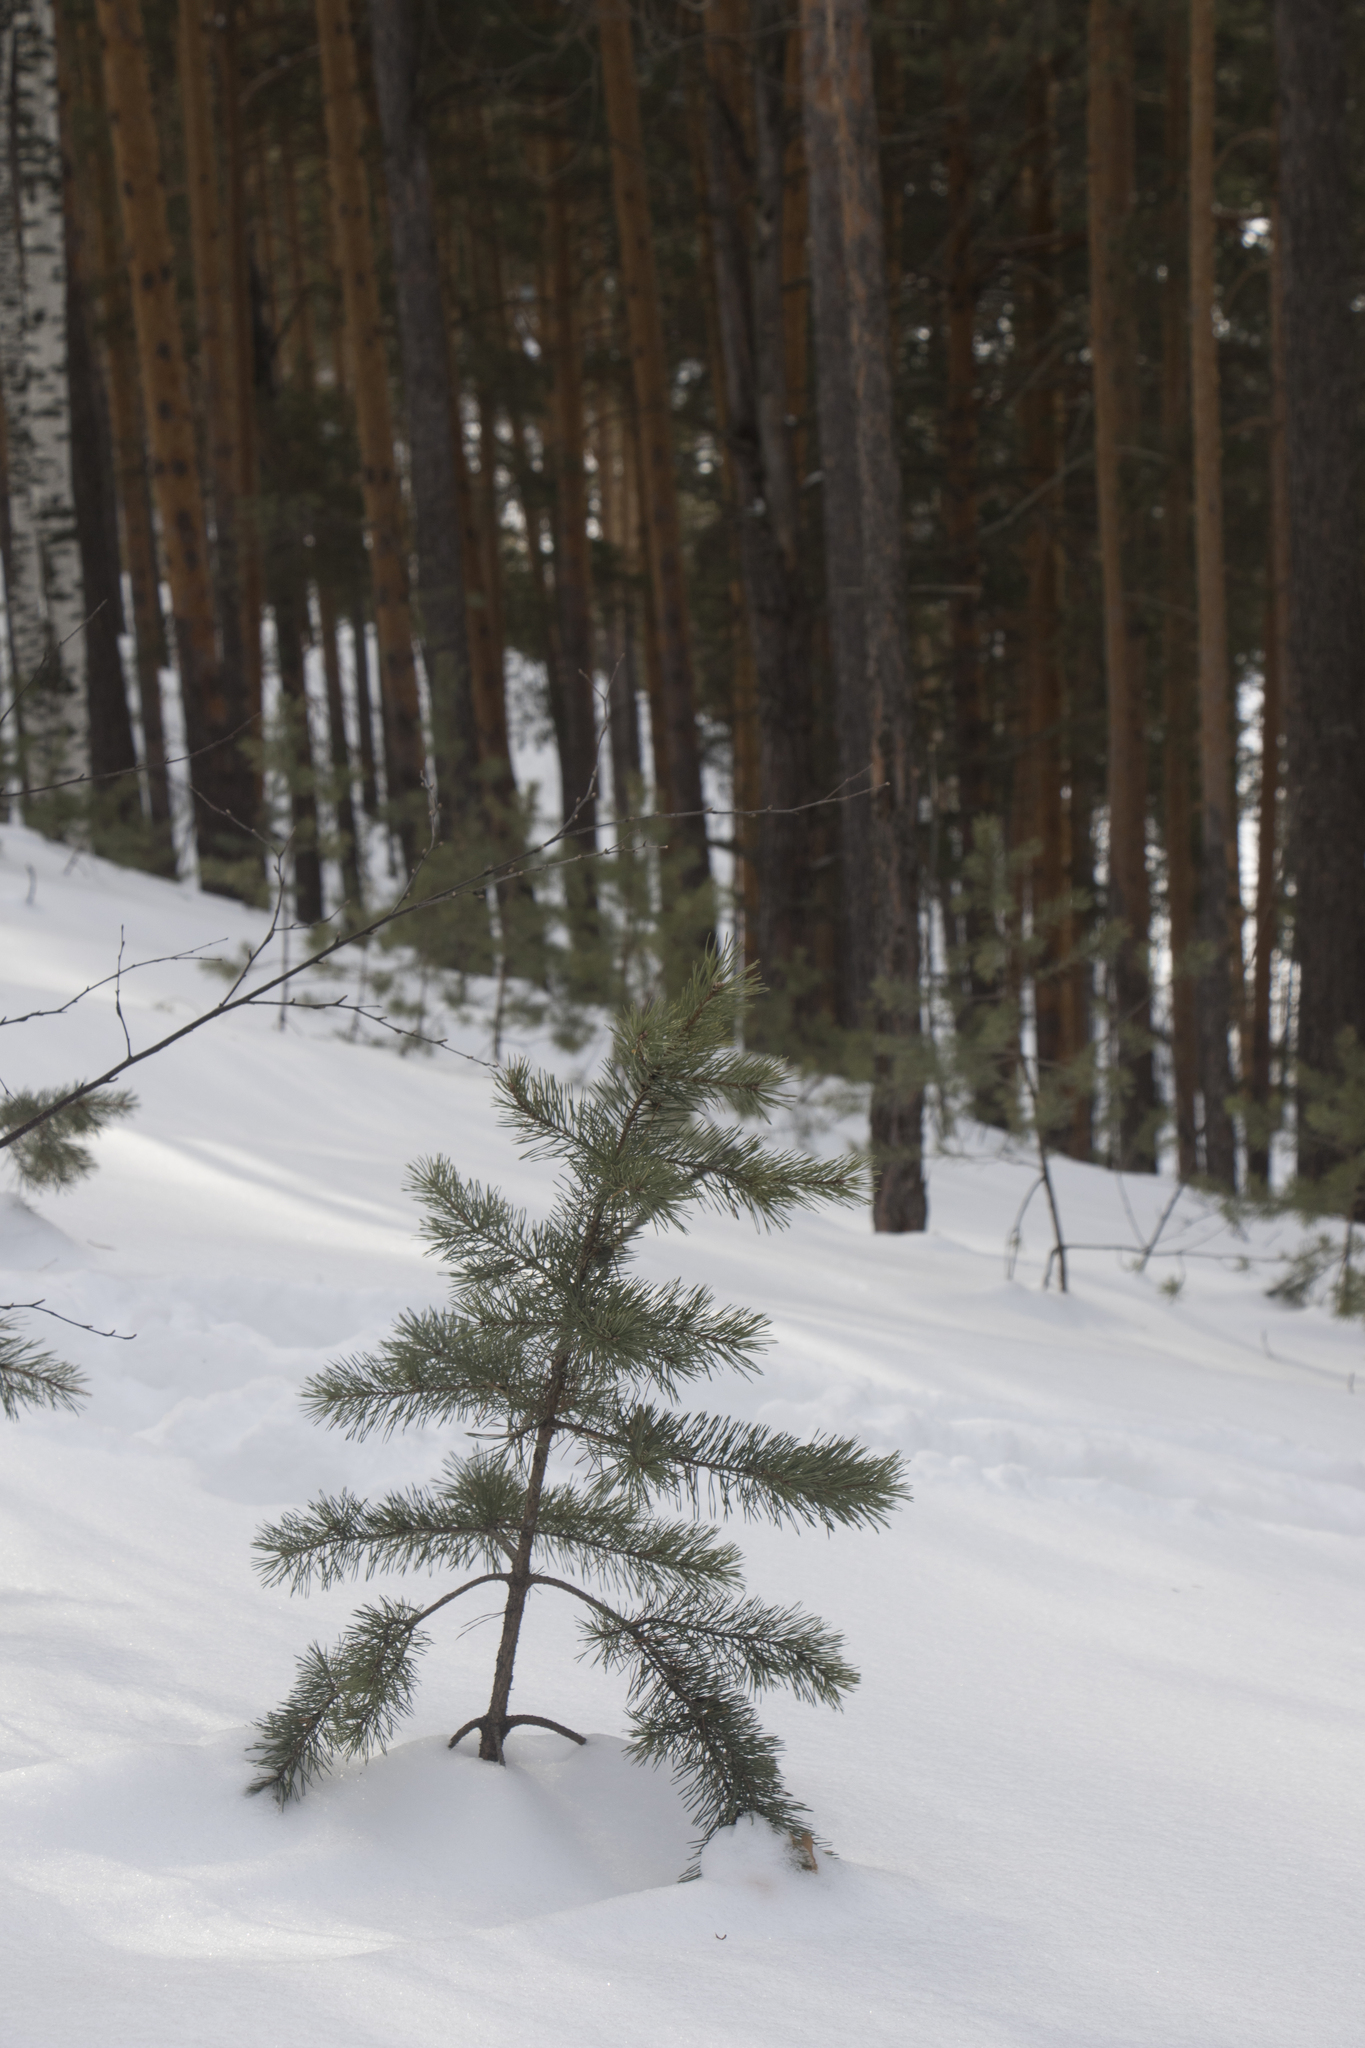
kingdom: Plantae
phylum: Tracheophyta
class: Pinopsida
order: Pinales
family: Pinaceae
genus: Pinus
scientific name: Pinus sylvestris
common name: Scots pine
